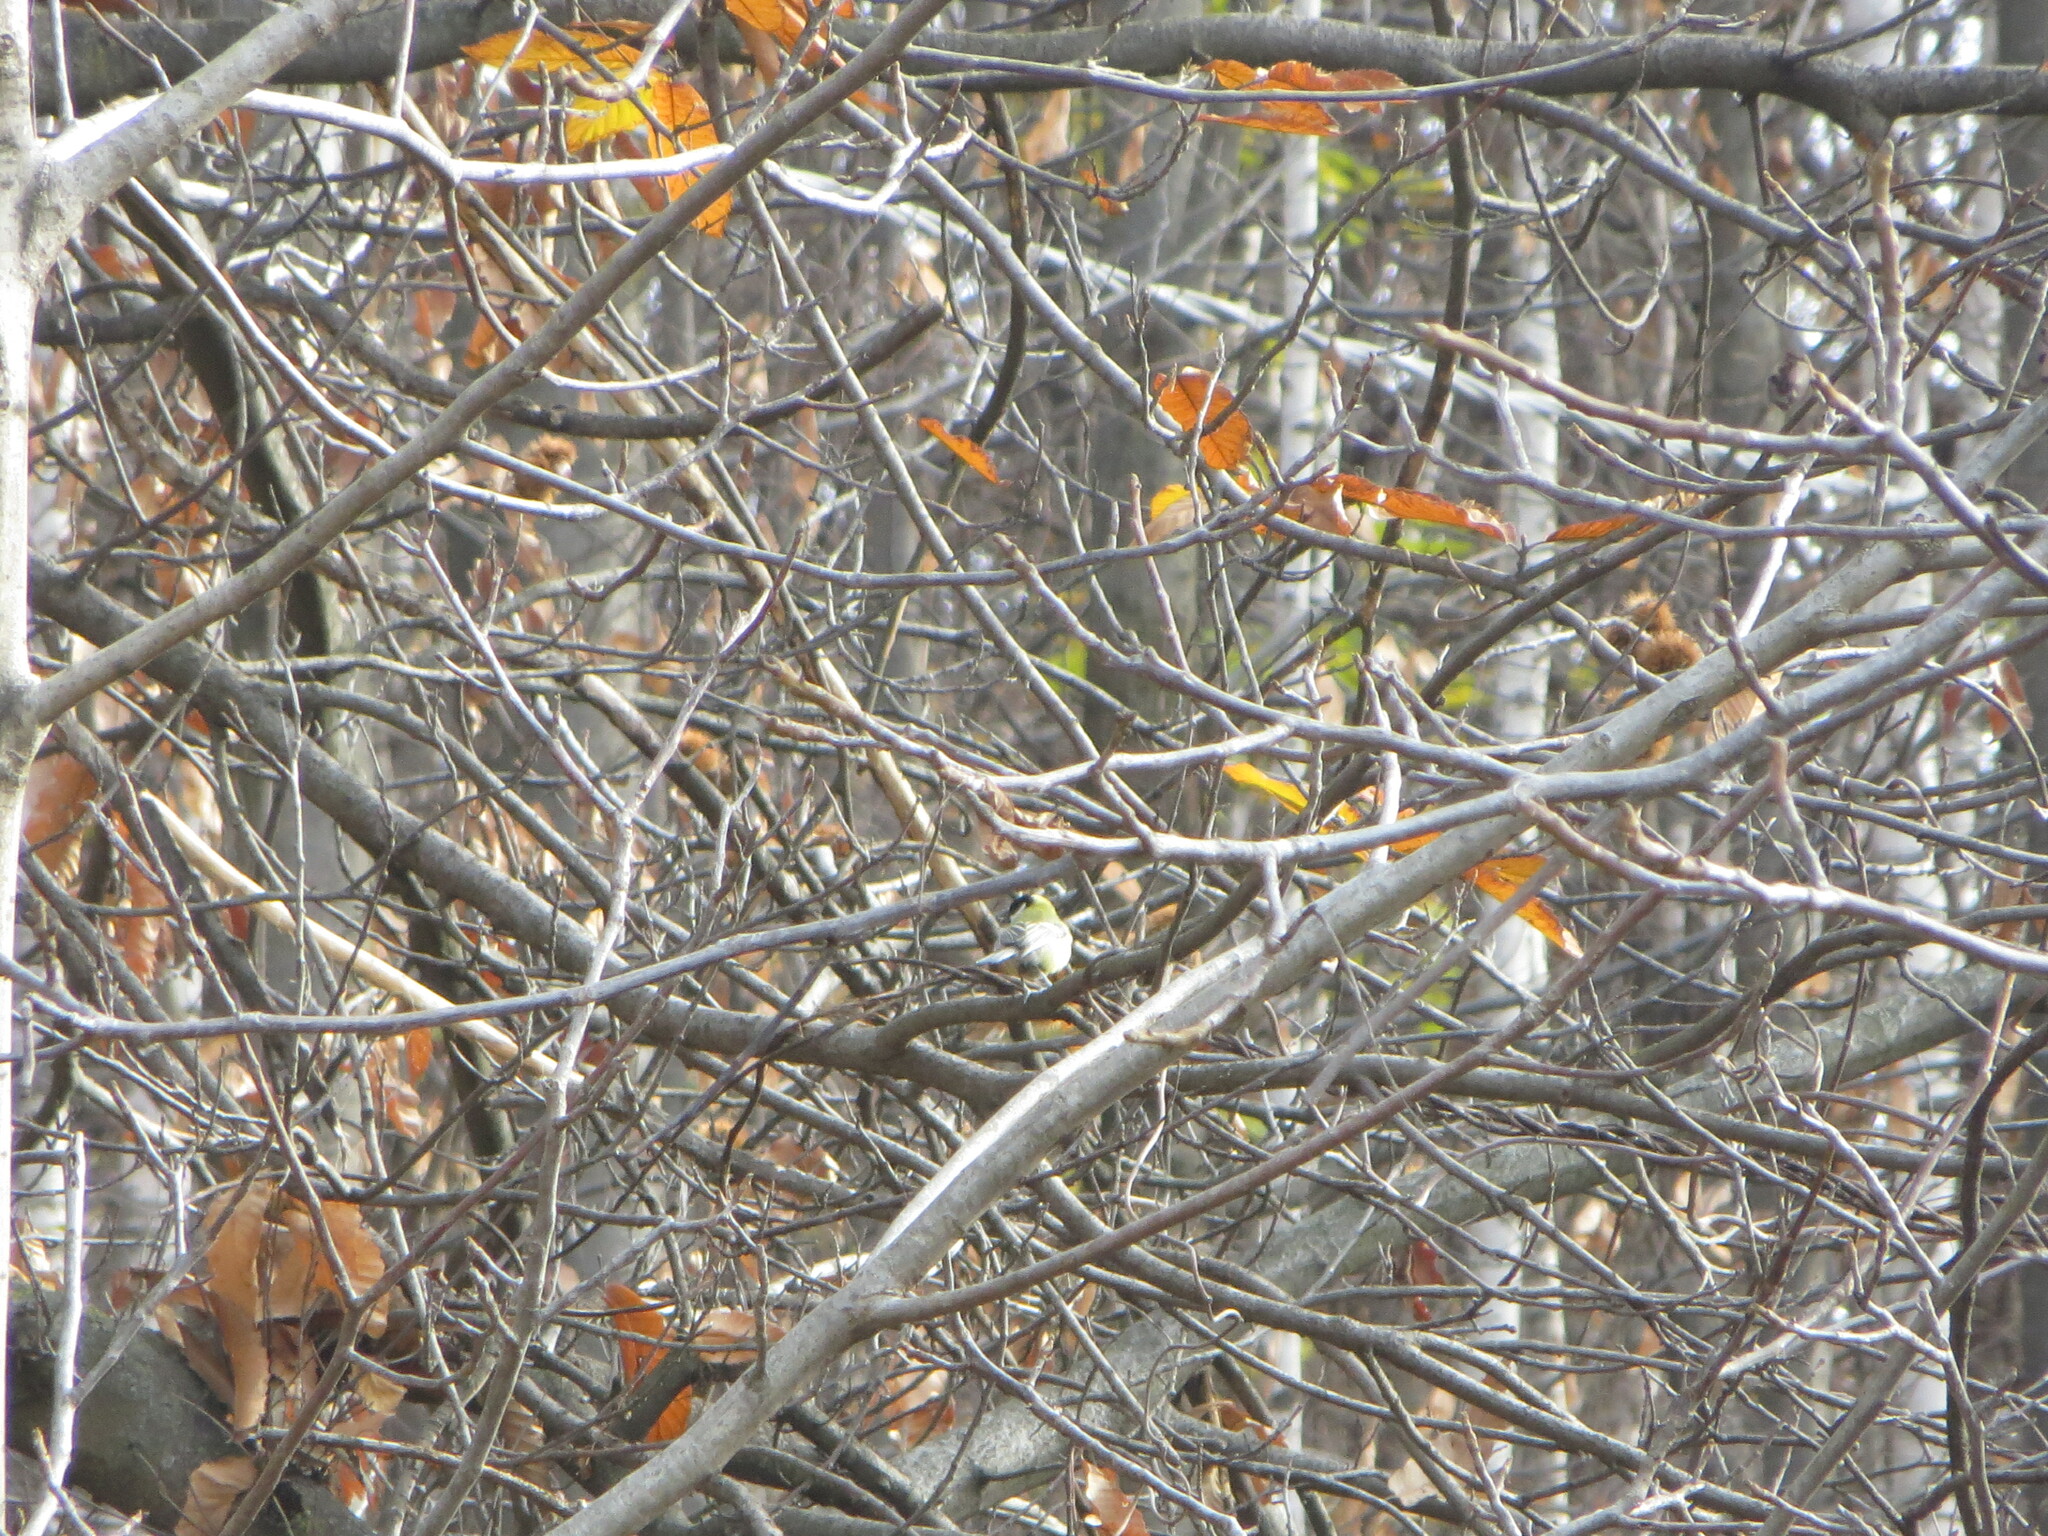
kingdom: Animalia
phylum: Chordata
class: Aves
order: Passeriformes
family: Paridae
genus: Parus
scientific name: Parus major
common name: Great tit
